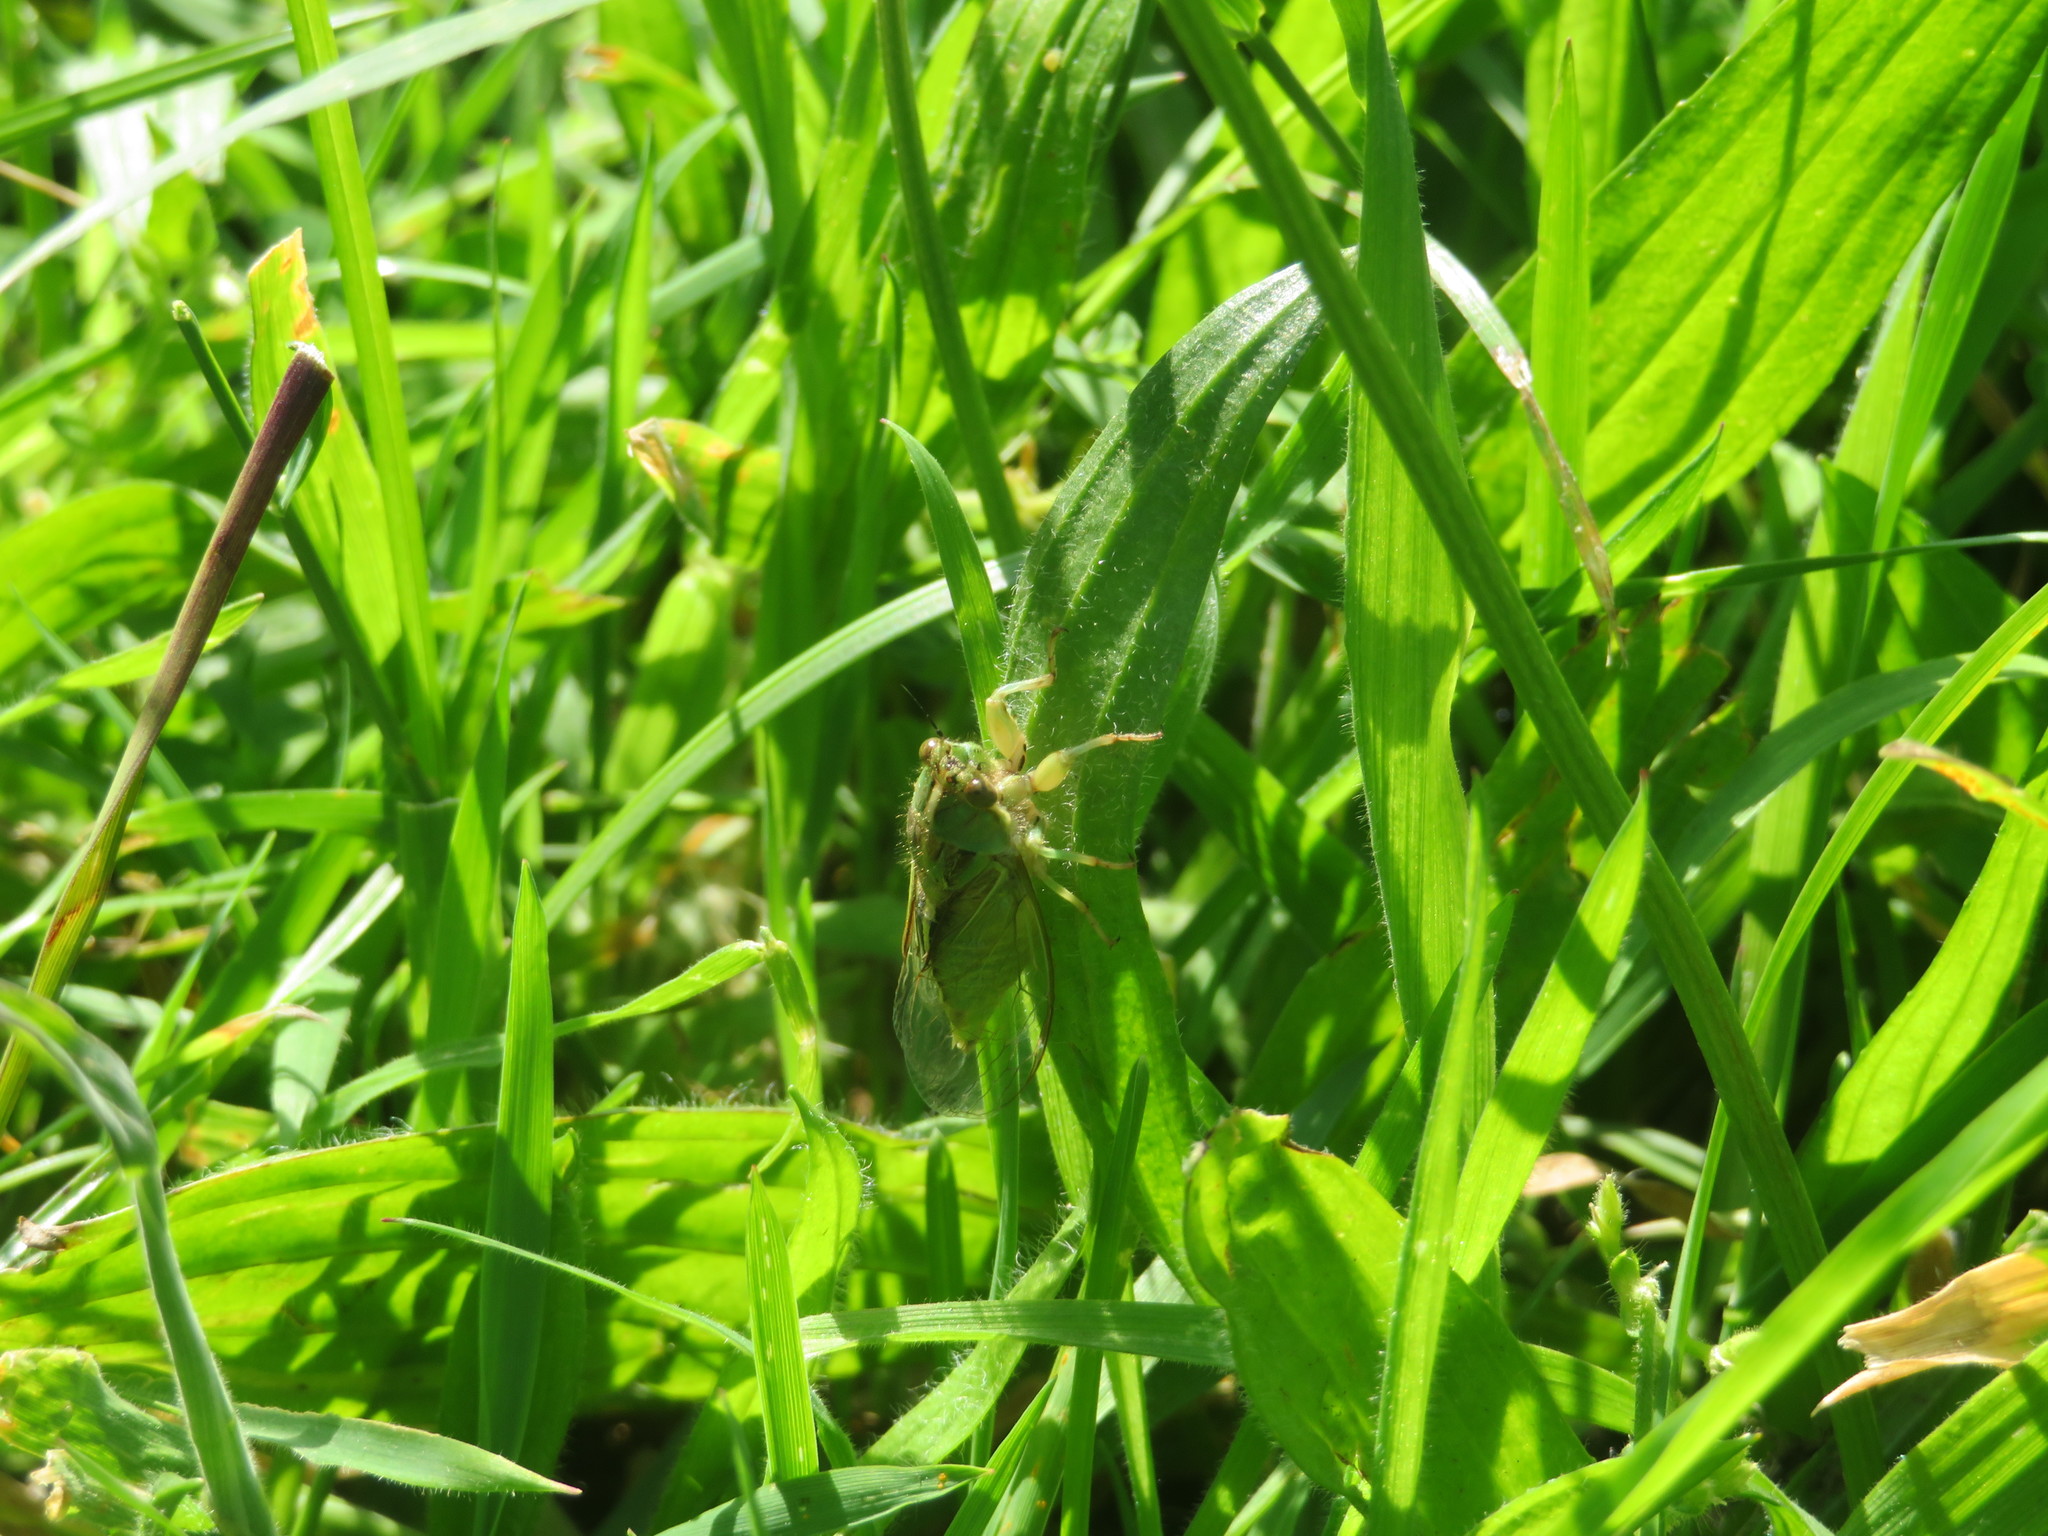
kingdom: Animalia
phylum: Arthropoda
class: Insecta
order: Hemiptera
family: Cicadidae
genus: Kikihia
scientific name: Kikihia muta
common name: Variable cicada
